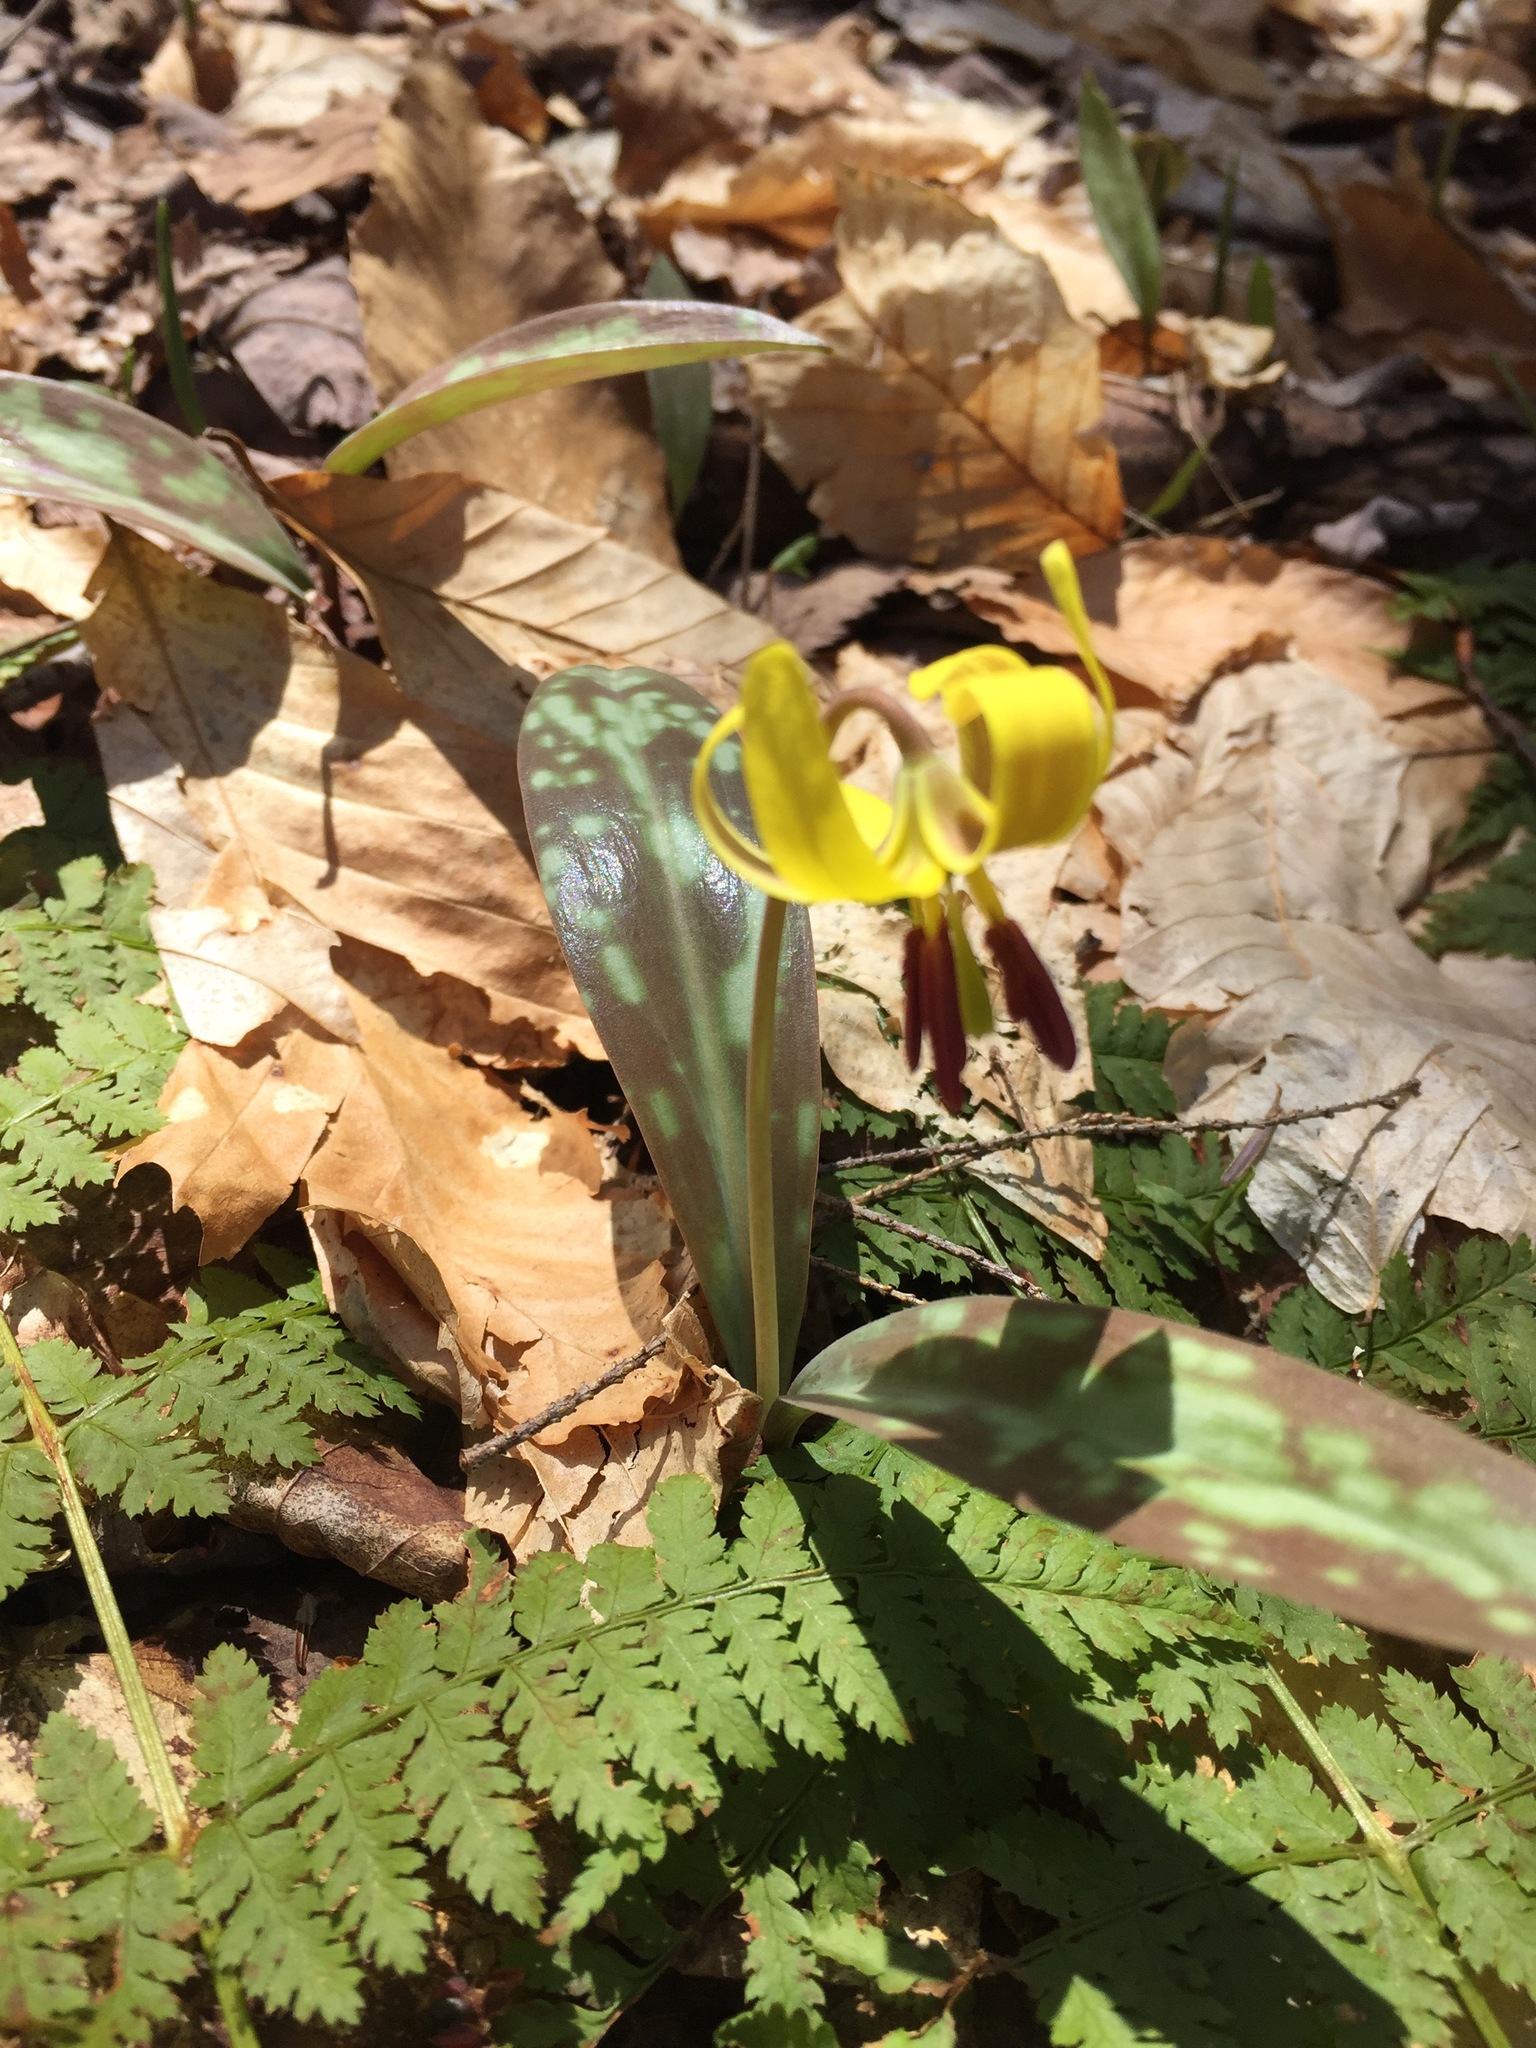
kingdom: Plantae
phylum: Tracheophyta
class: Liliopsida
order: Liliales
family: Liliaceae
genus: Erythronium
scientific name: Erythronium americanum
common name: Yellow adder's-tongue
